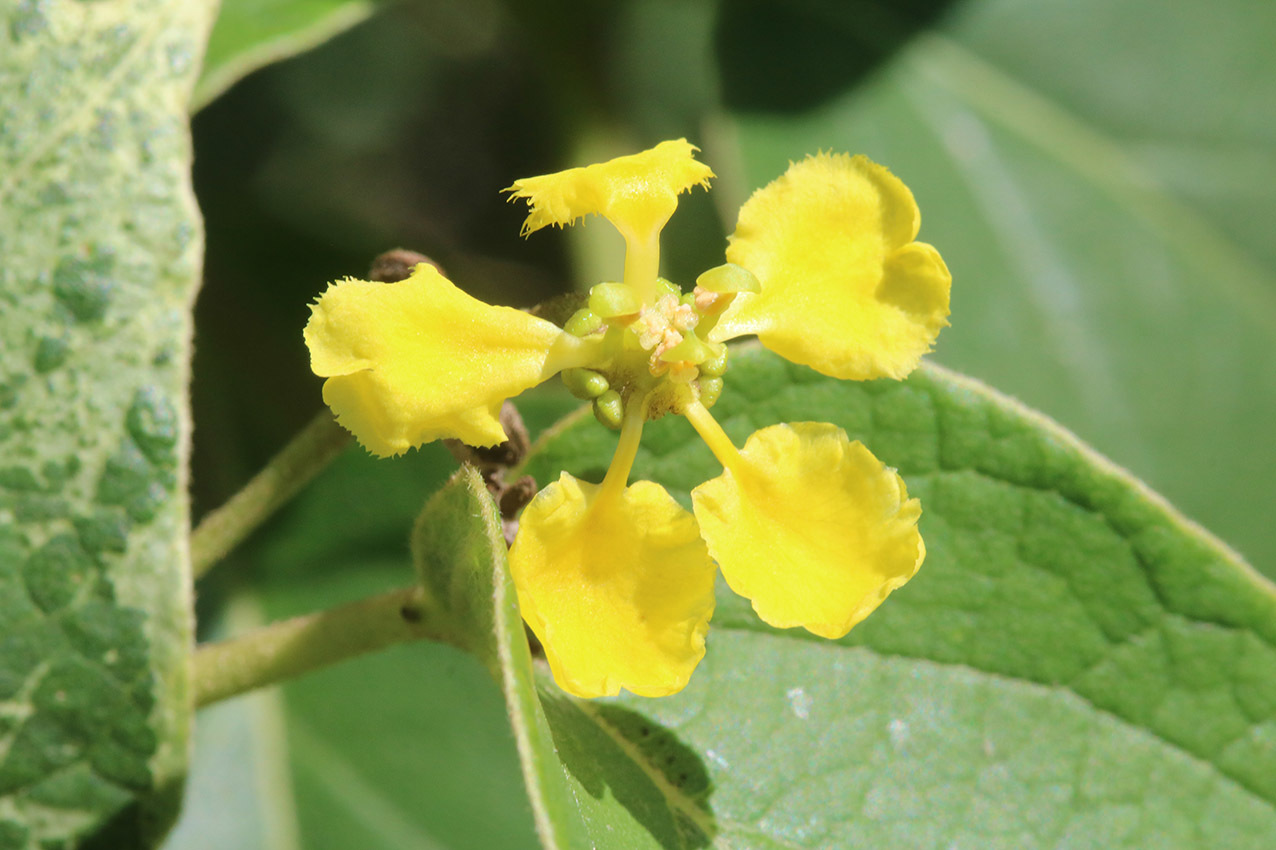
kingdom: Plantae
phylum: Tracheophyta
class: Magnoliopsida
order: Malpighiales
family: Malpighiaceae
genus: Stigmaphyllon
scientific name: Stigmaphyllon bonariense
